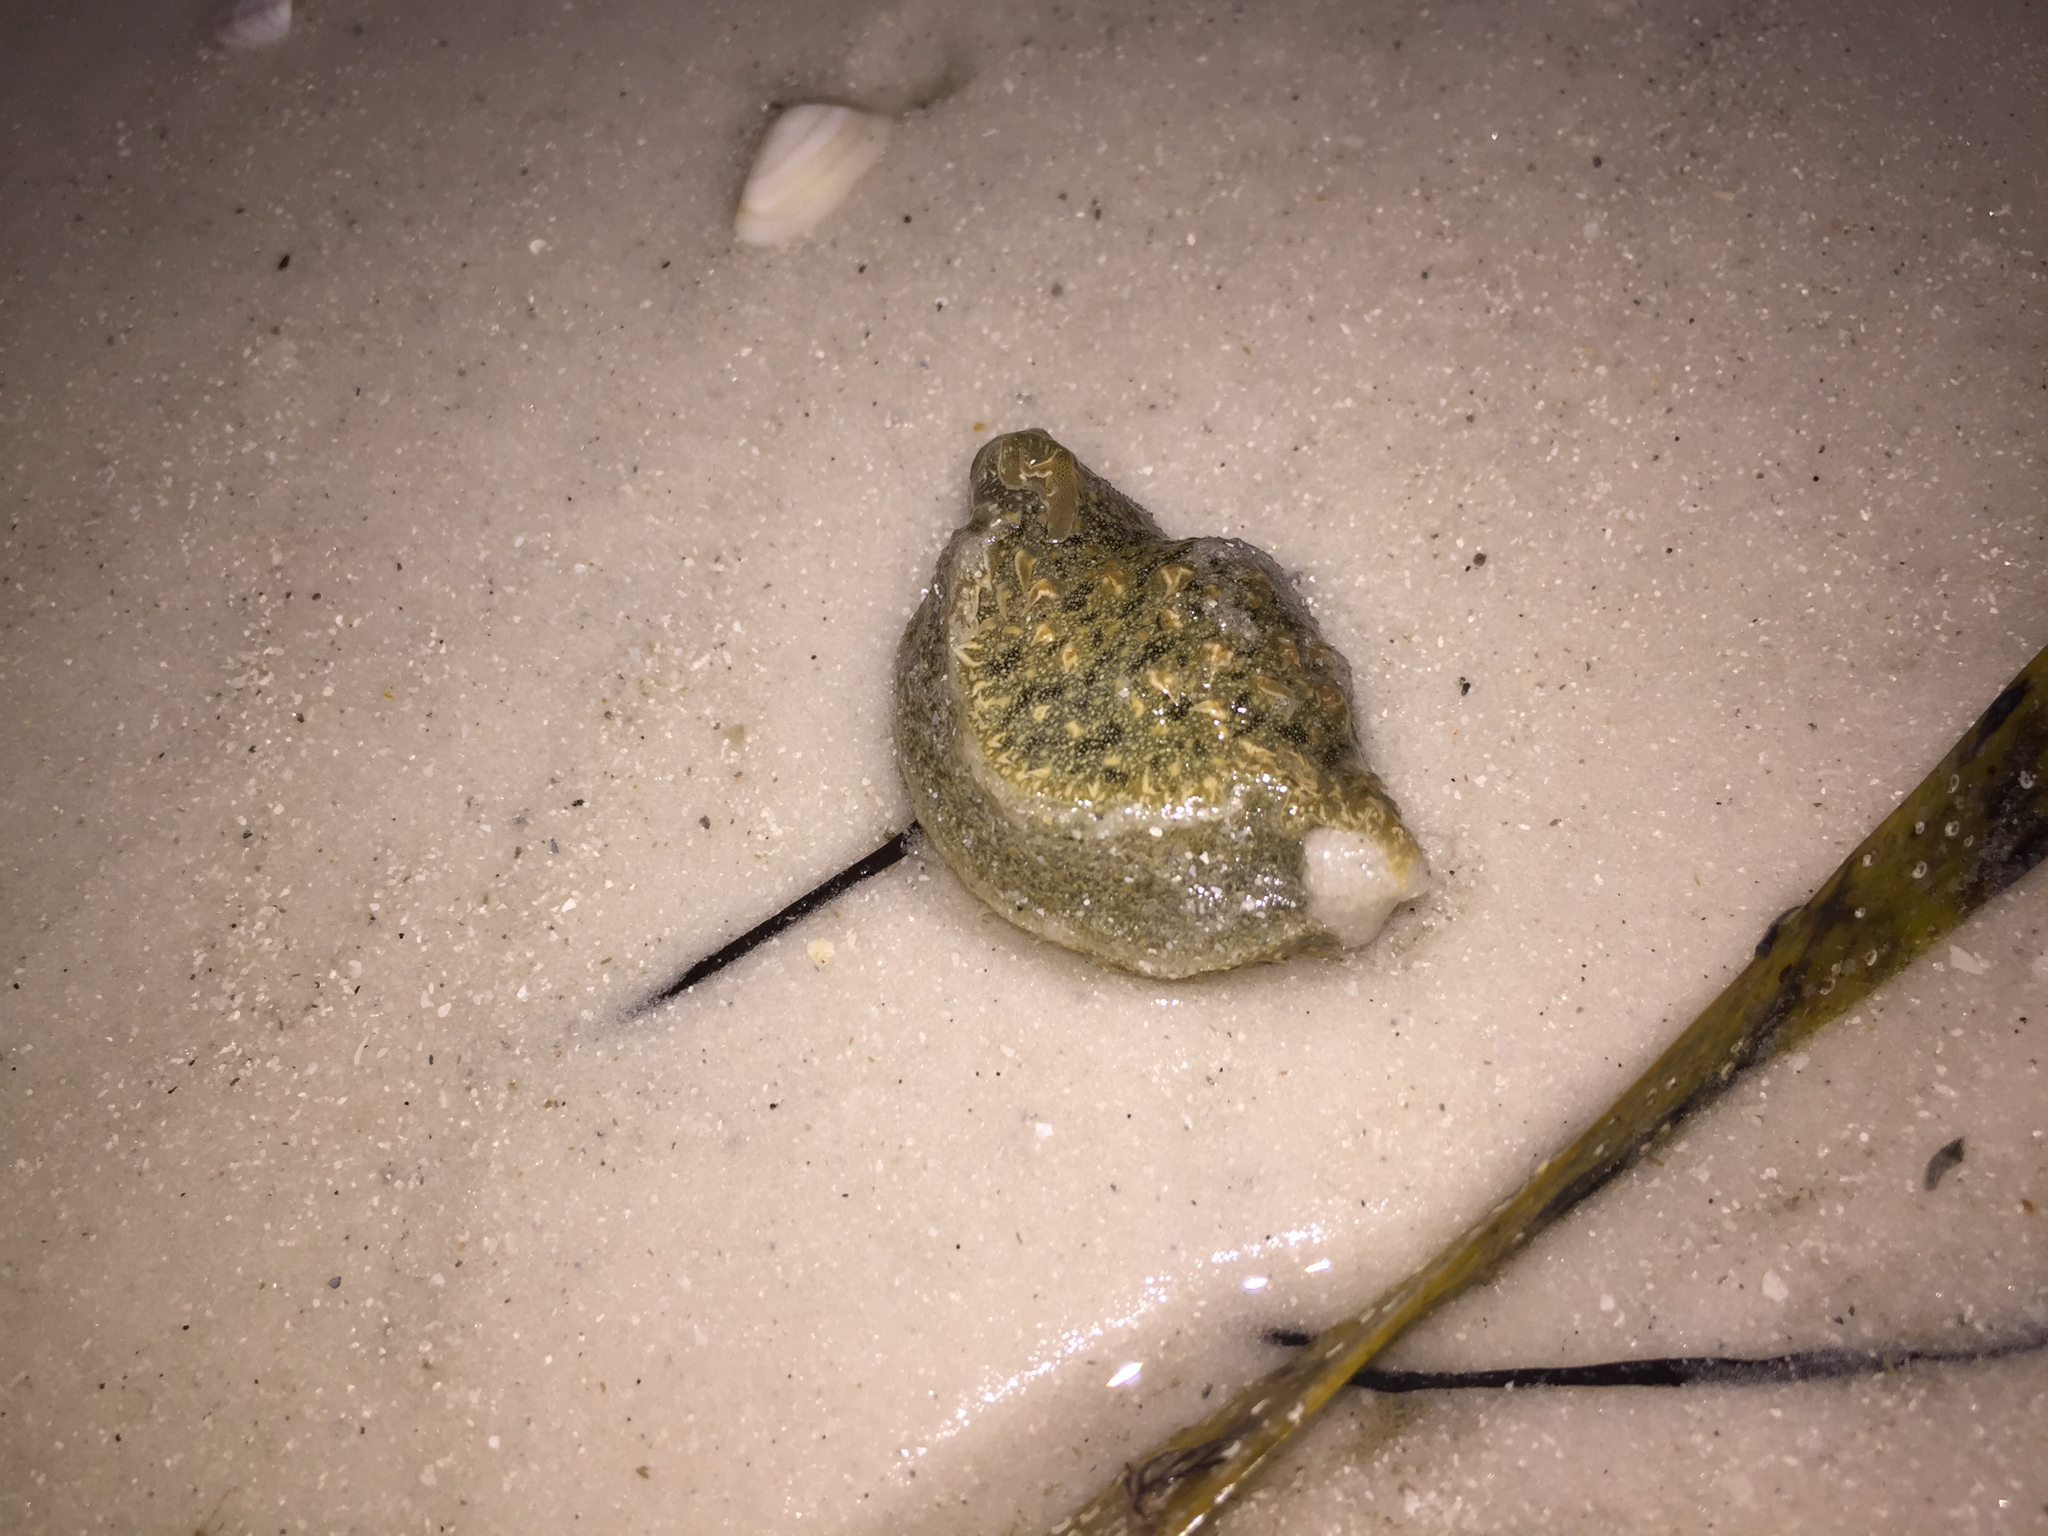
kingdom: Animalia
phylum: Mollusca
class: Gastropoda
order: Aplysiida
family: Aplysiidae
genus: Bursatella
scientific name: Bursatella leachii
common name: Shaggy sea hare
